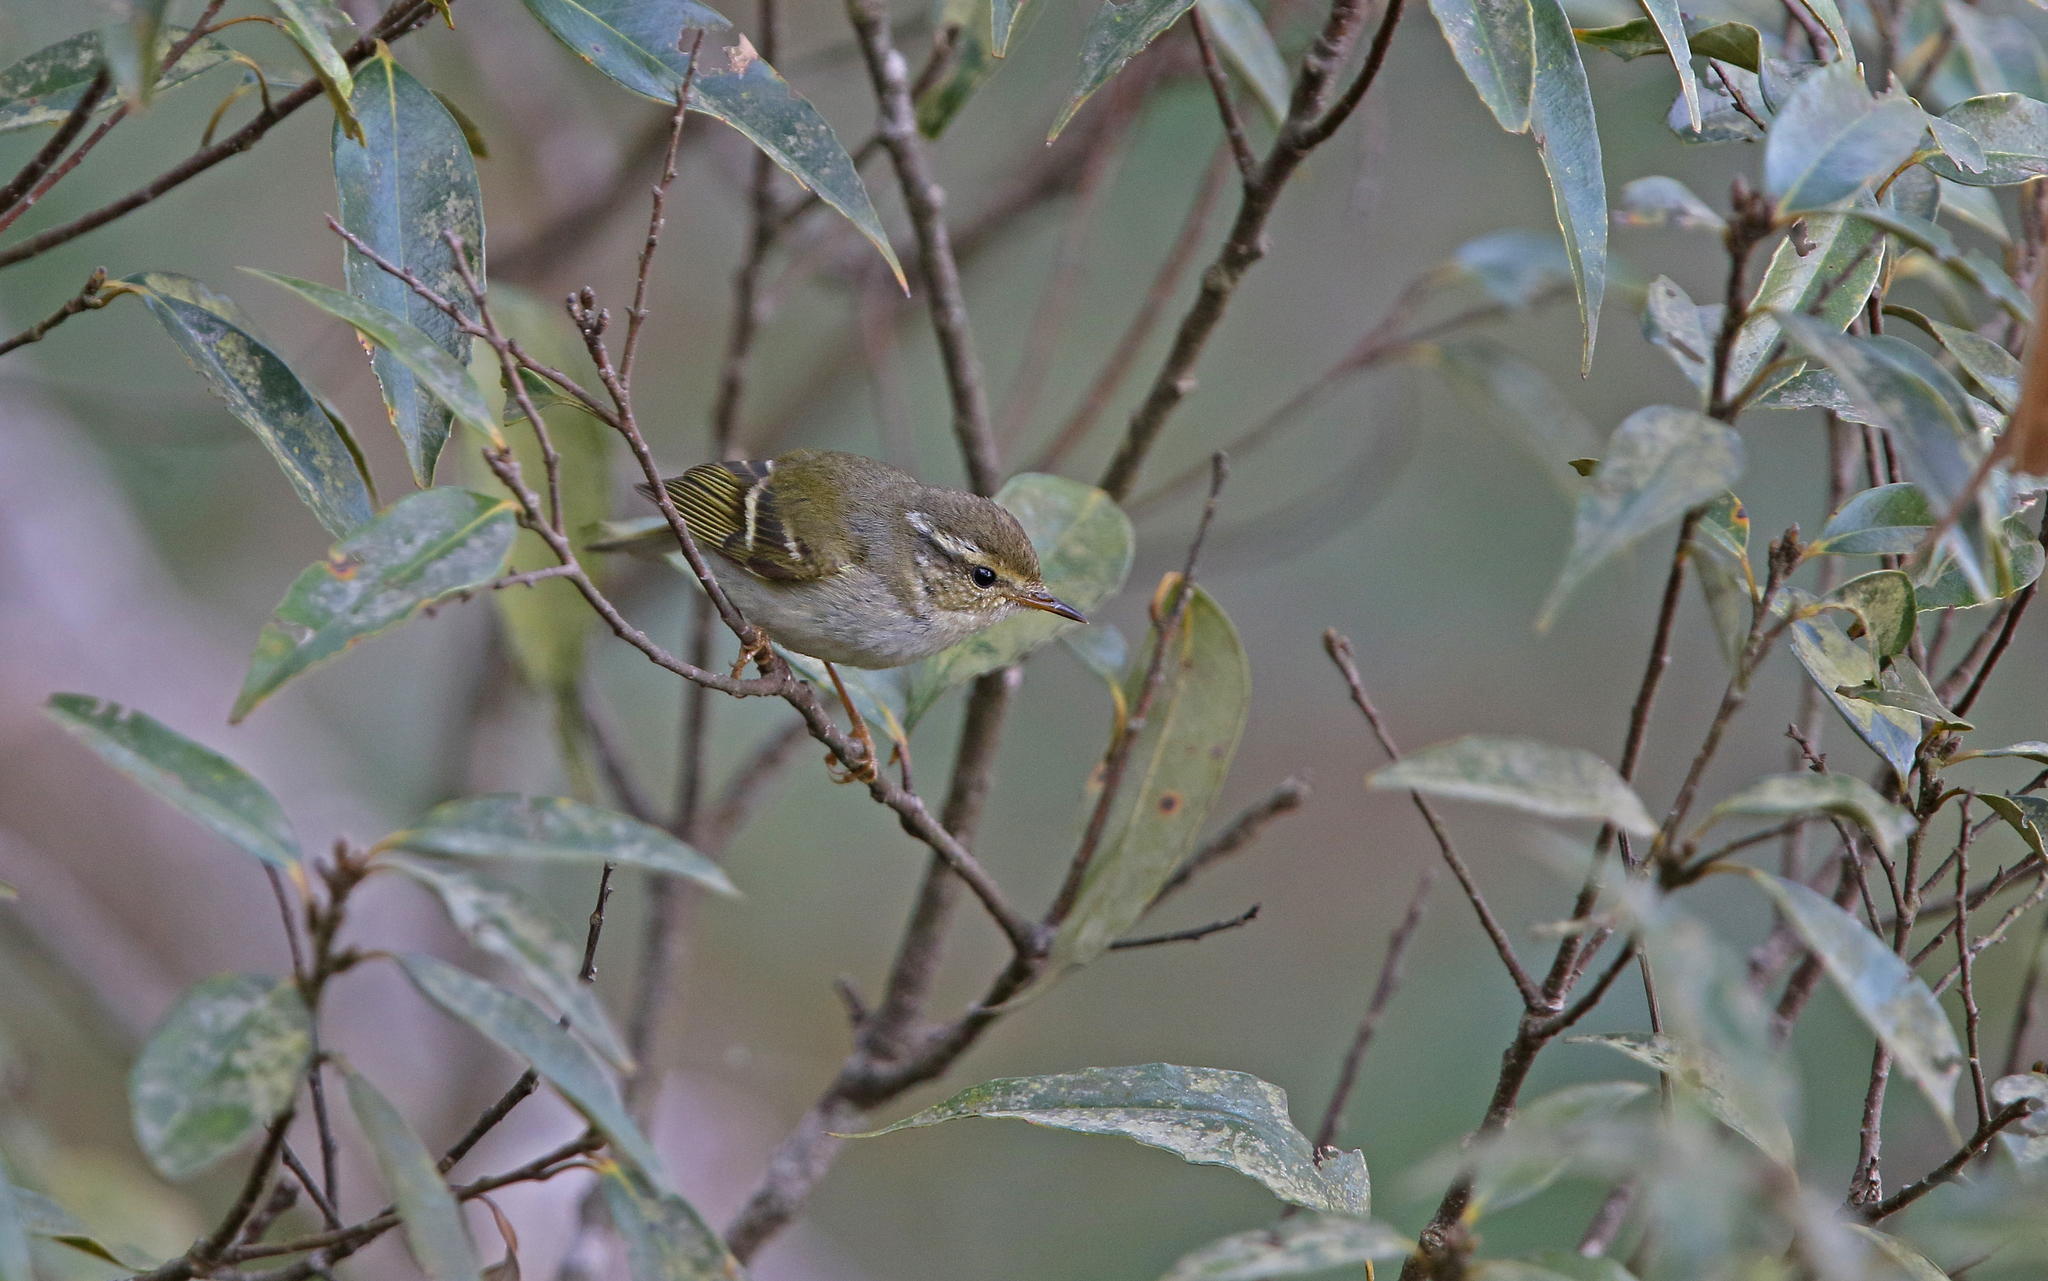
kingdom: Animalia
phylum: Chordata
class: Aves
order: Passeriformes
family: Phylloscopidae
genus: Phylloscopus
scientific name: Phylloscopus inornatus
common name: Yellow-browed warbler
